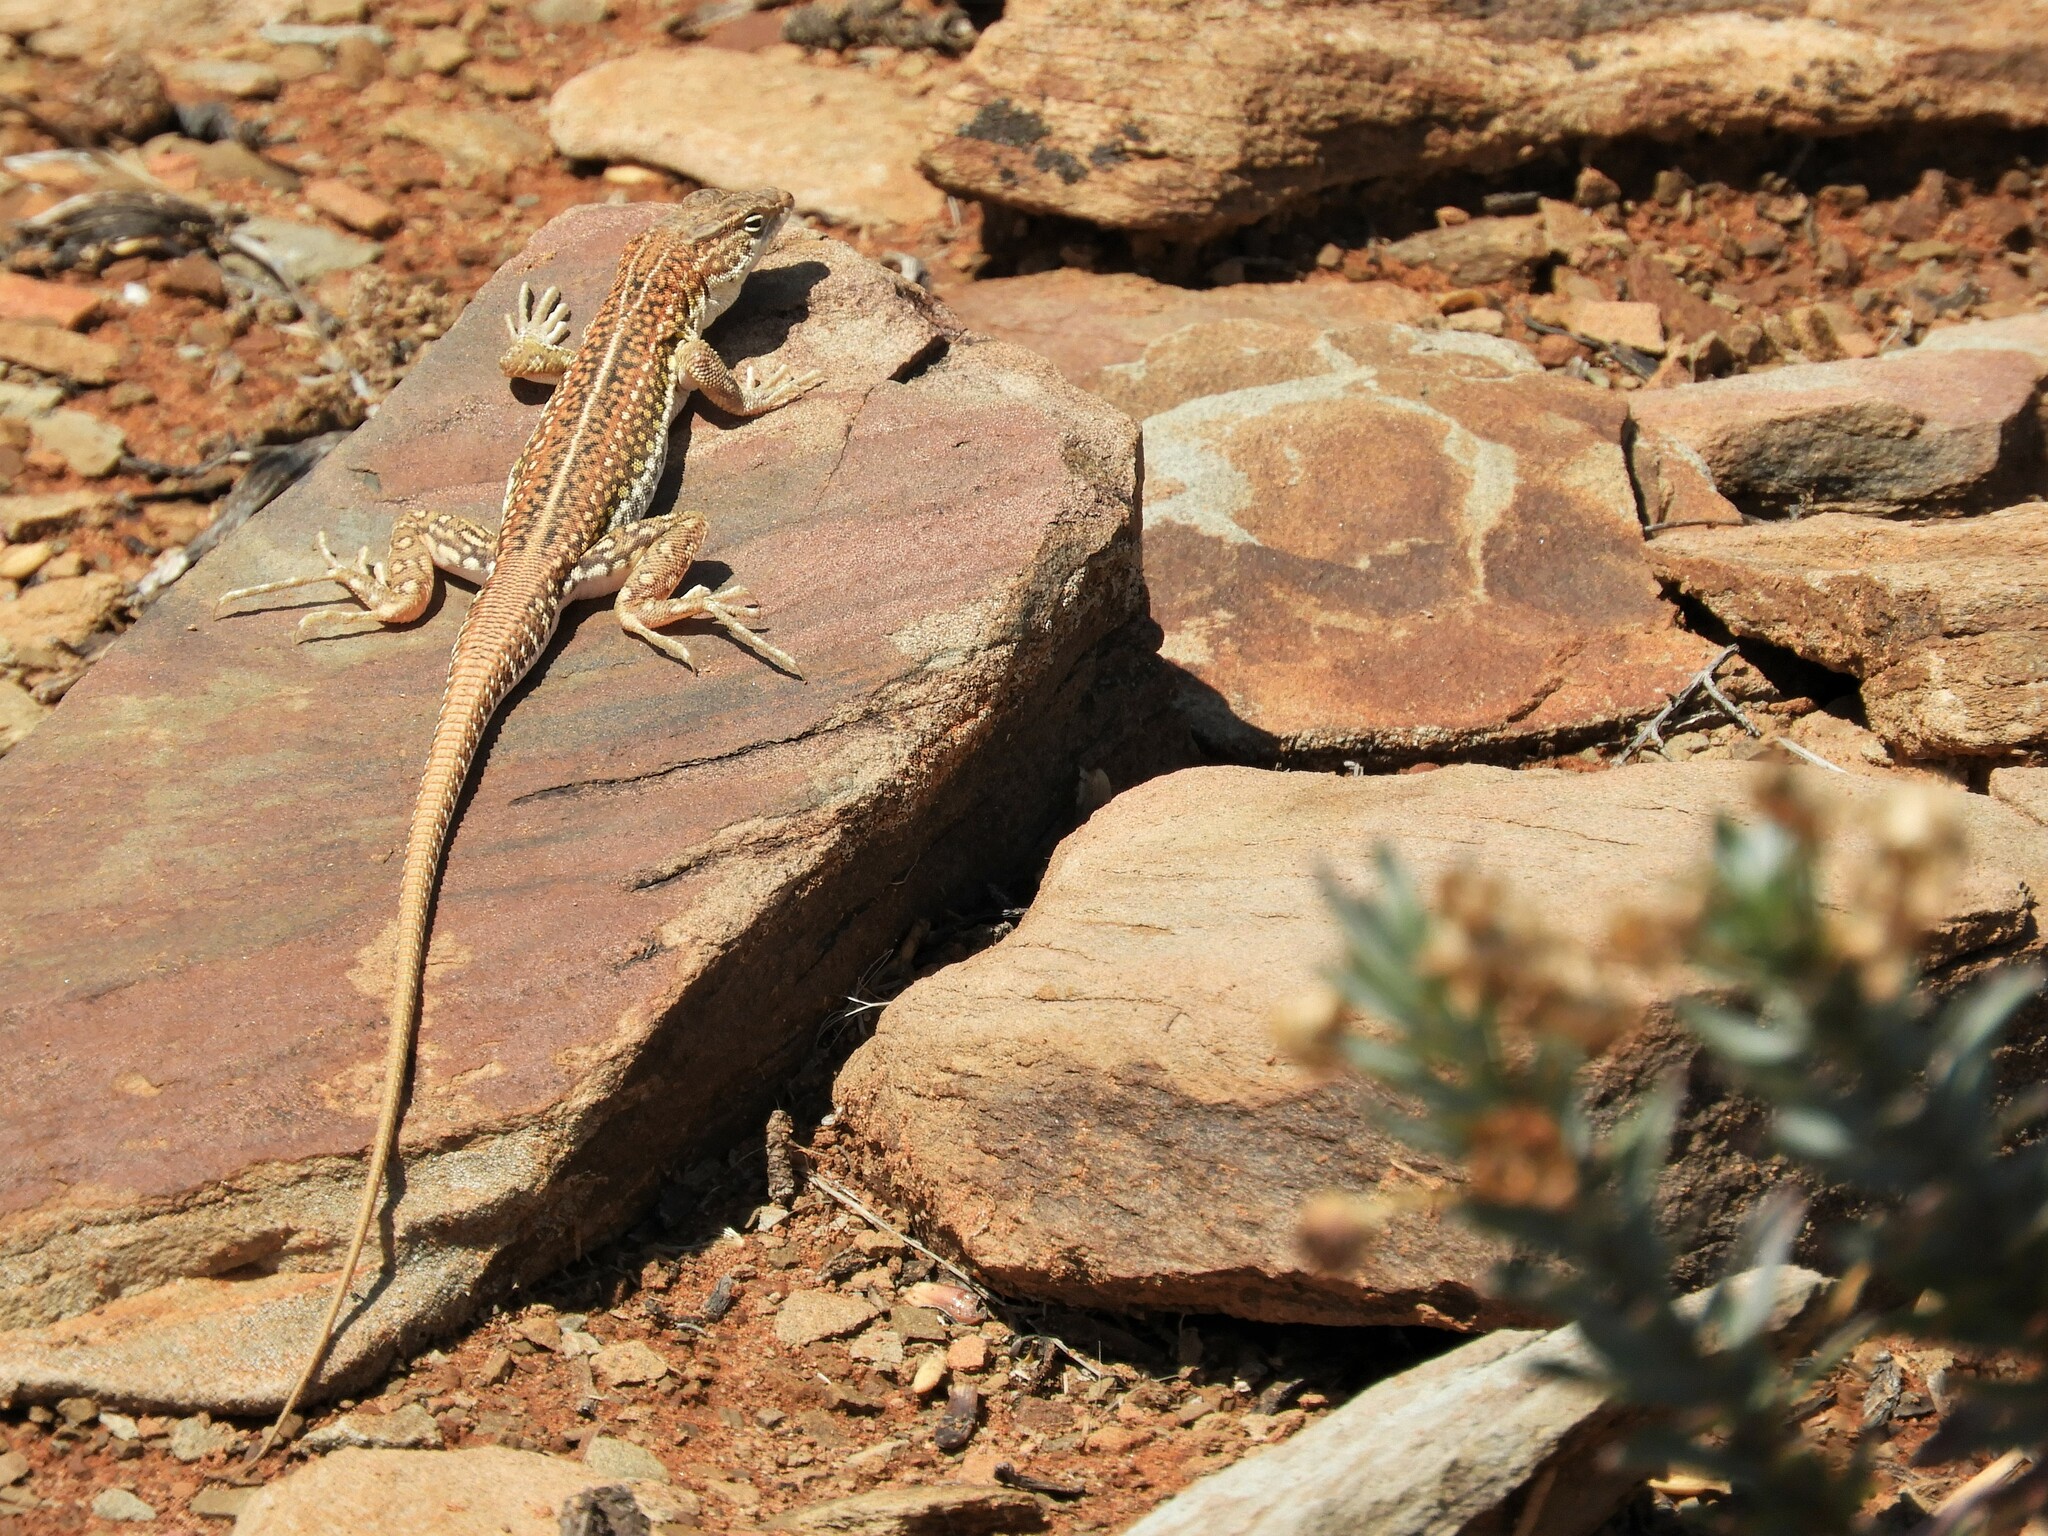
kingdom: Animalia
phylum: Chordata
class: Squamata
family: Lacertidae
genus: Pedioplanis
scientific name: Pedioplanis laticeps
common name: Karoo sand lizard
